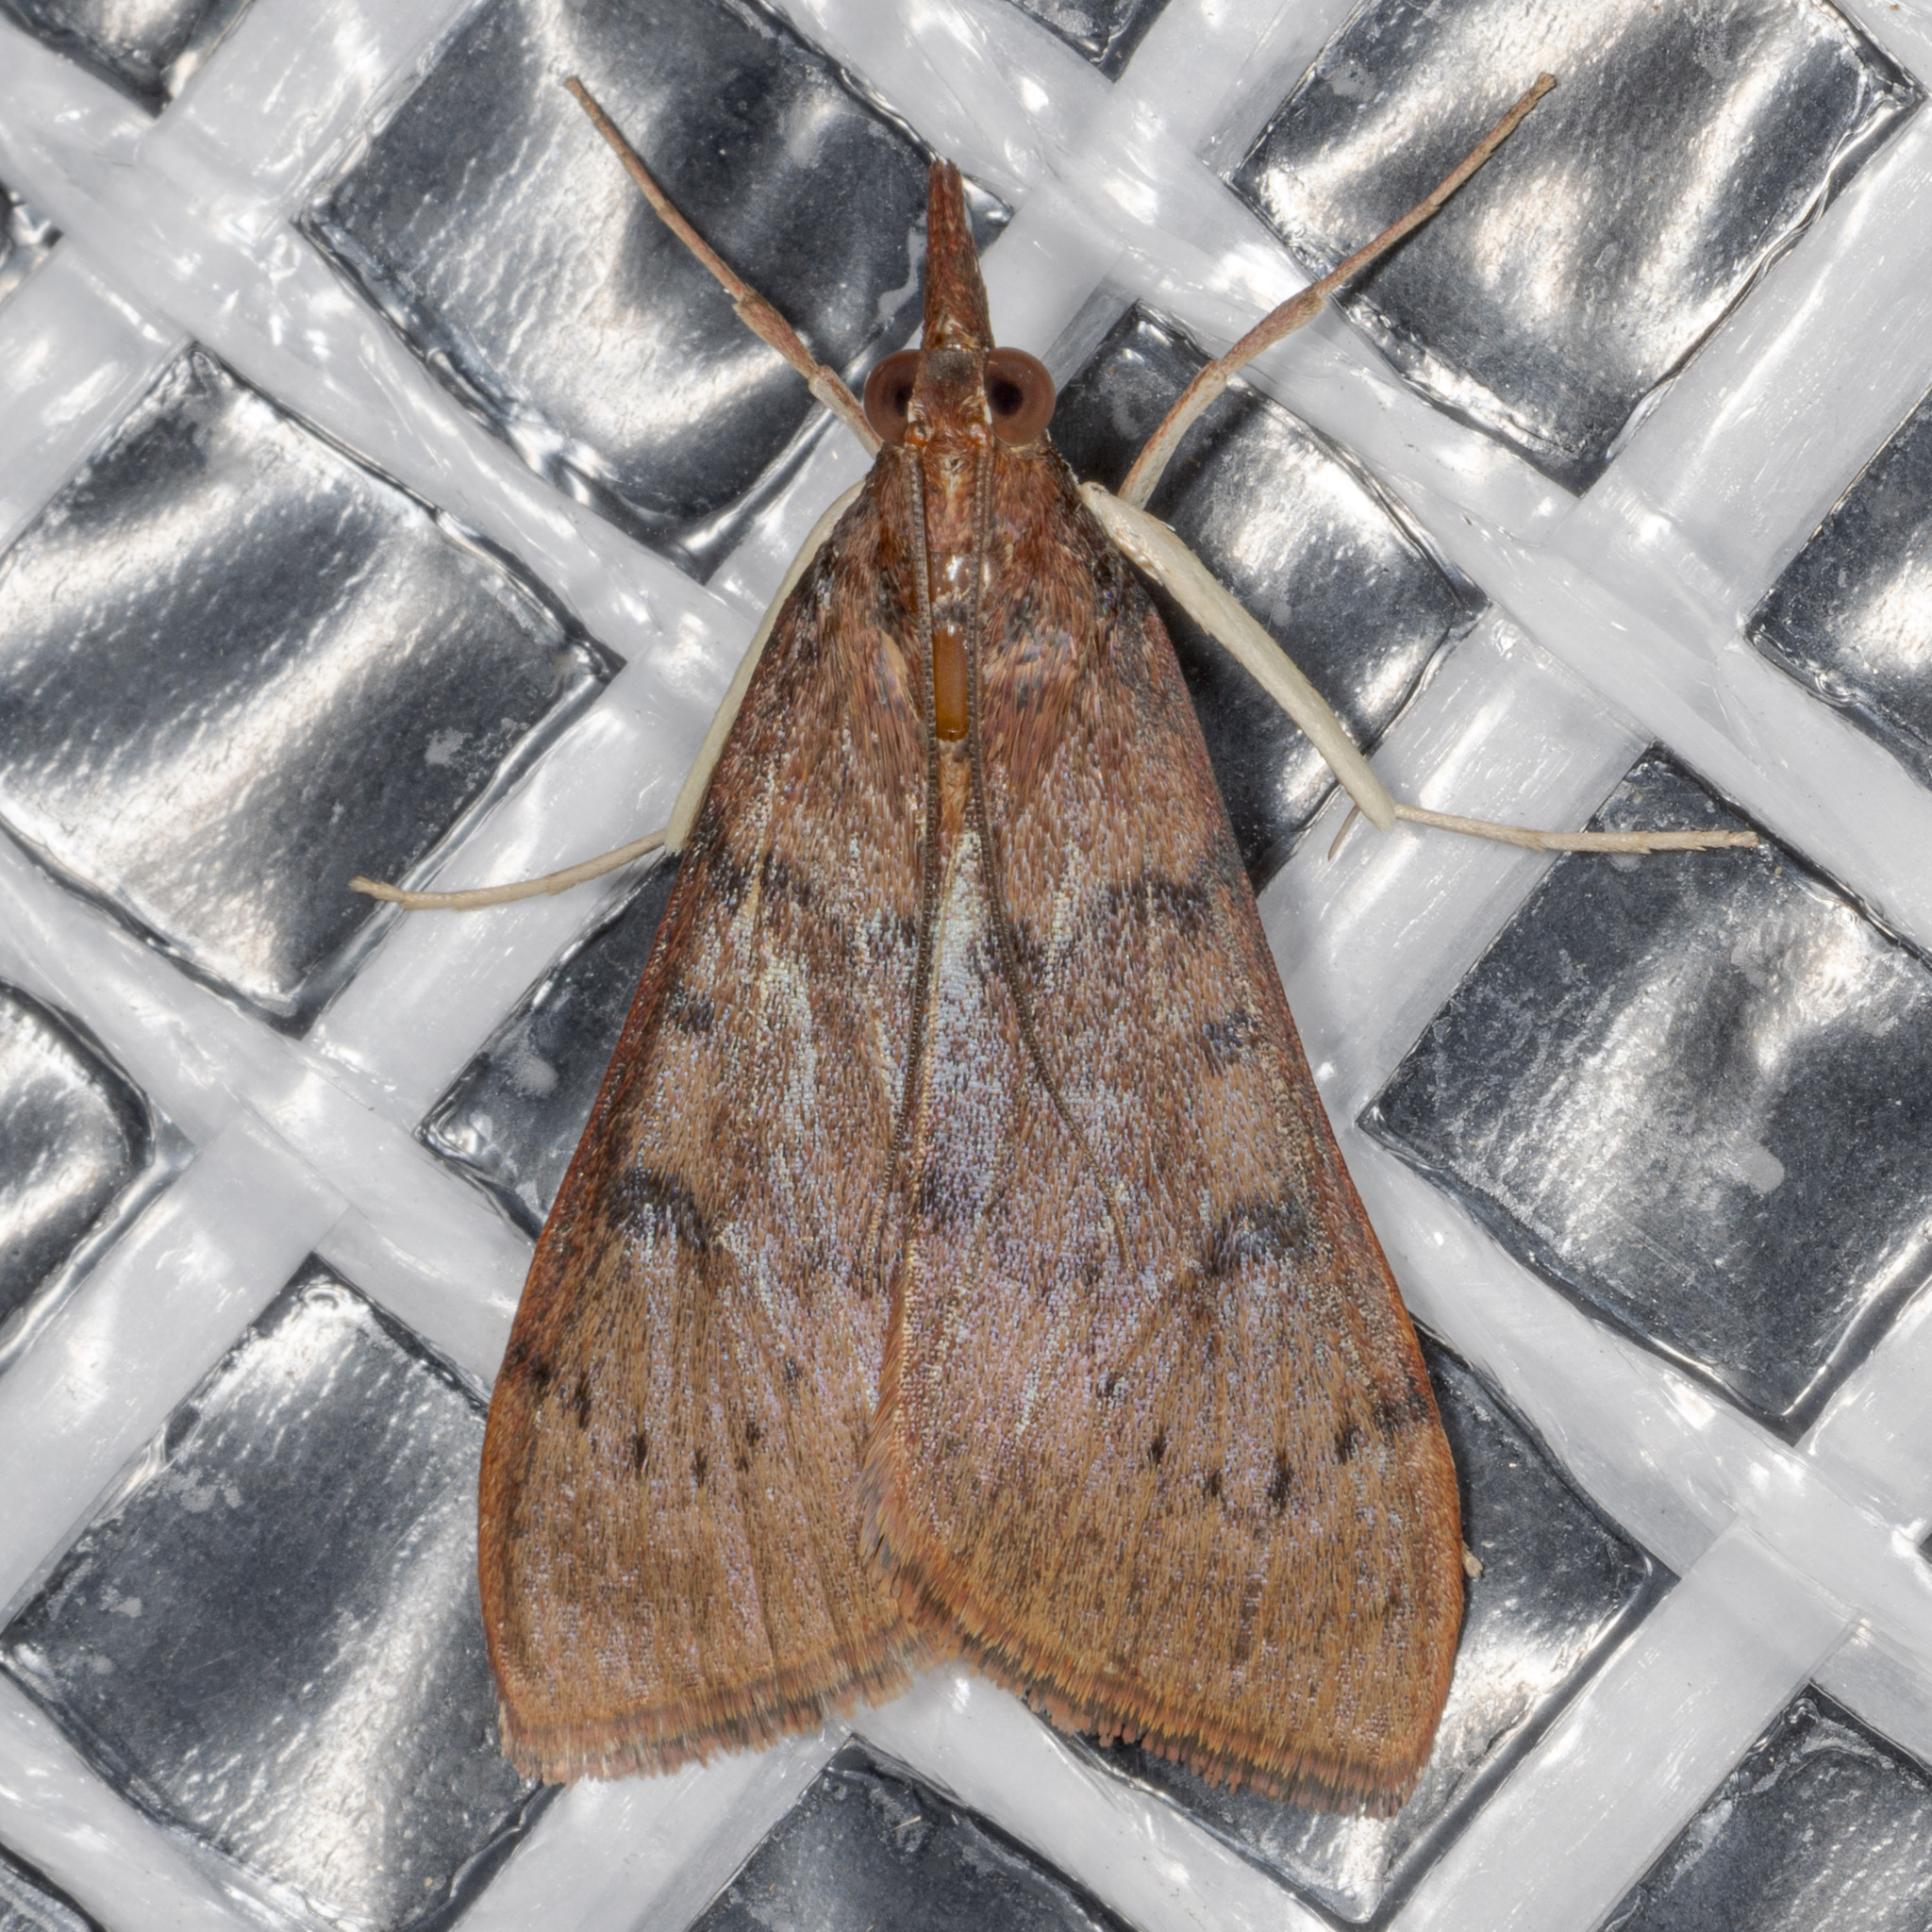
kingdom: Animalia
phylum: Arthropoda
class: Insecta
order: Lepidoptera
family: Crambidae
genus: Uresiphita
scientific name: Uresiphita reversalis
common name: Genista broom moth
